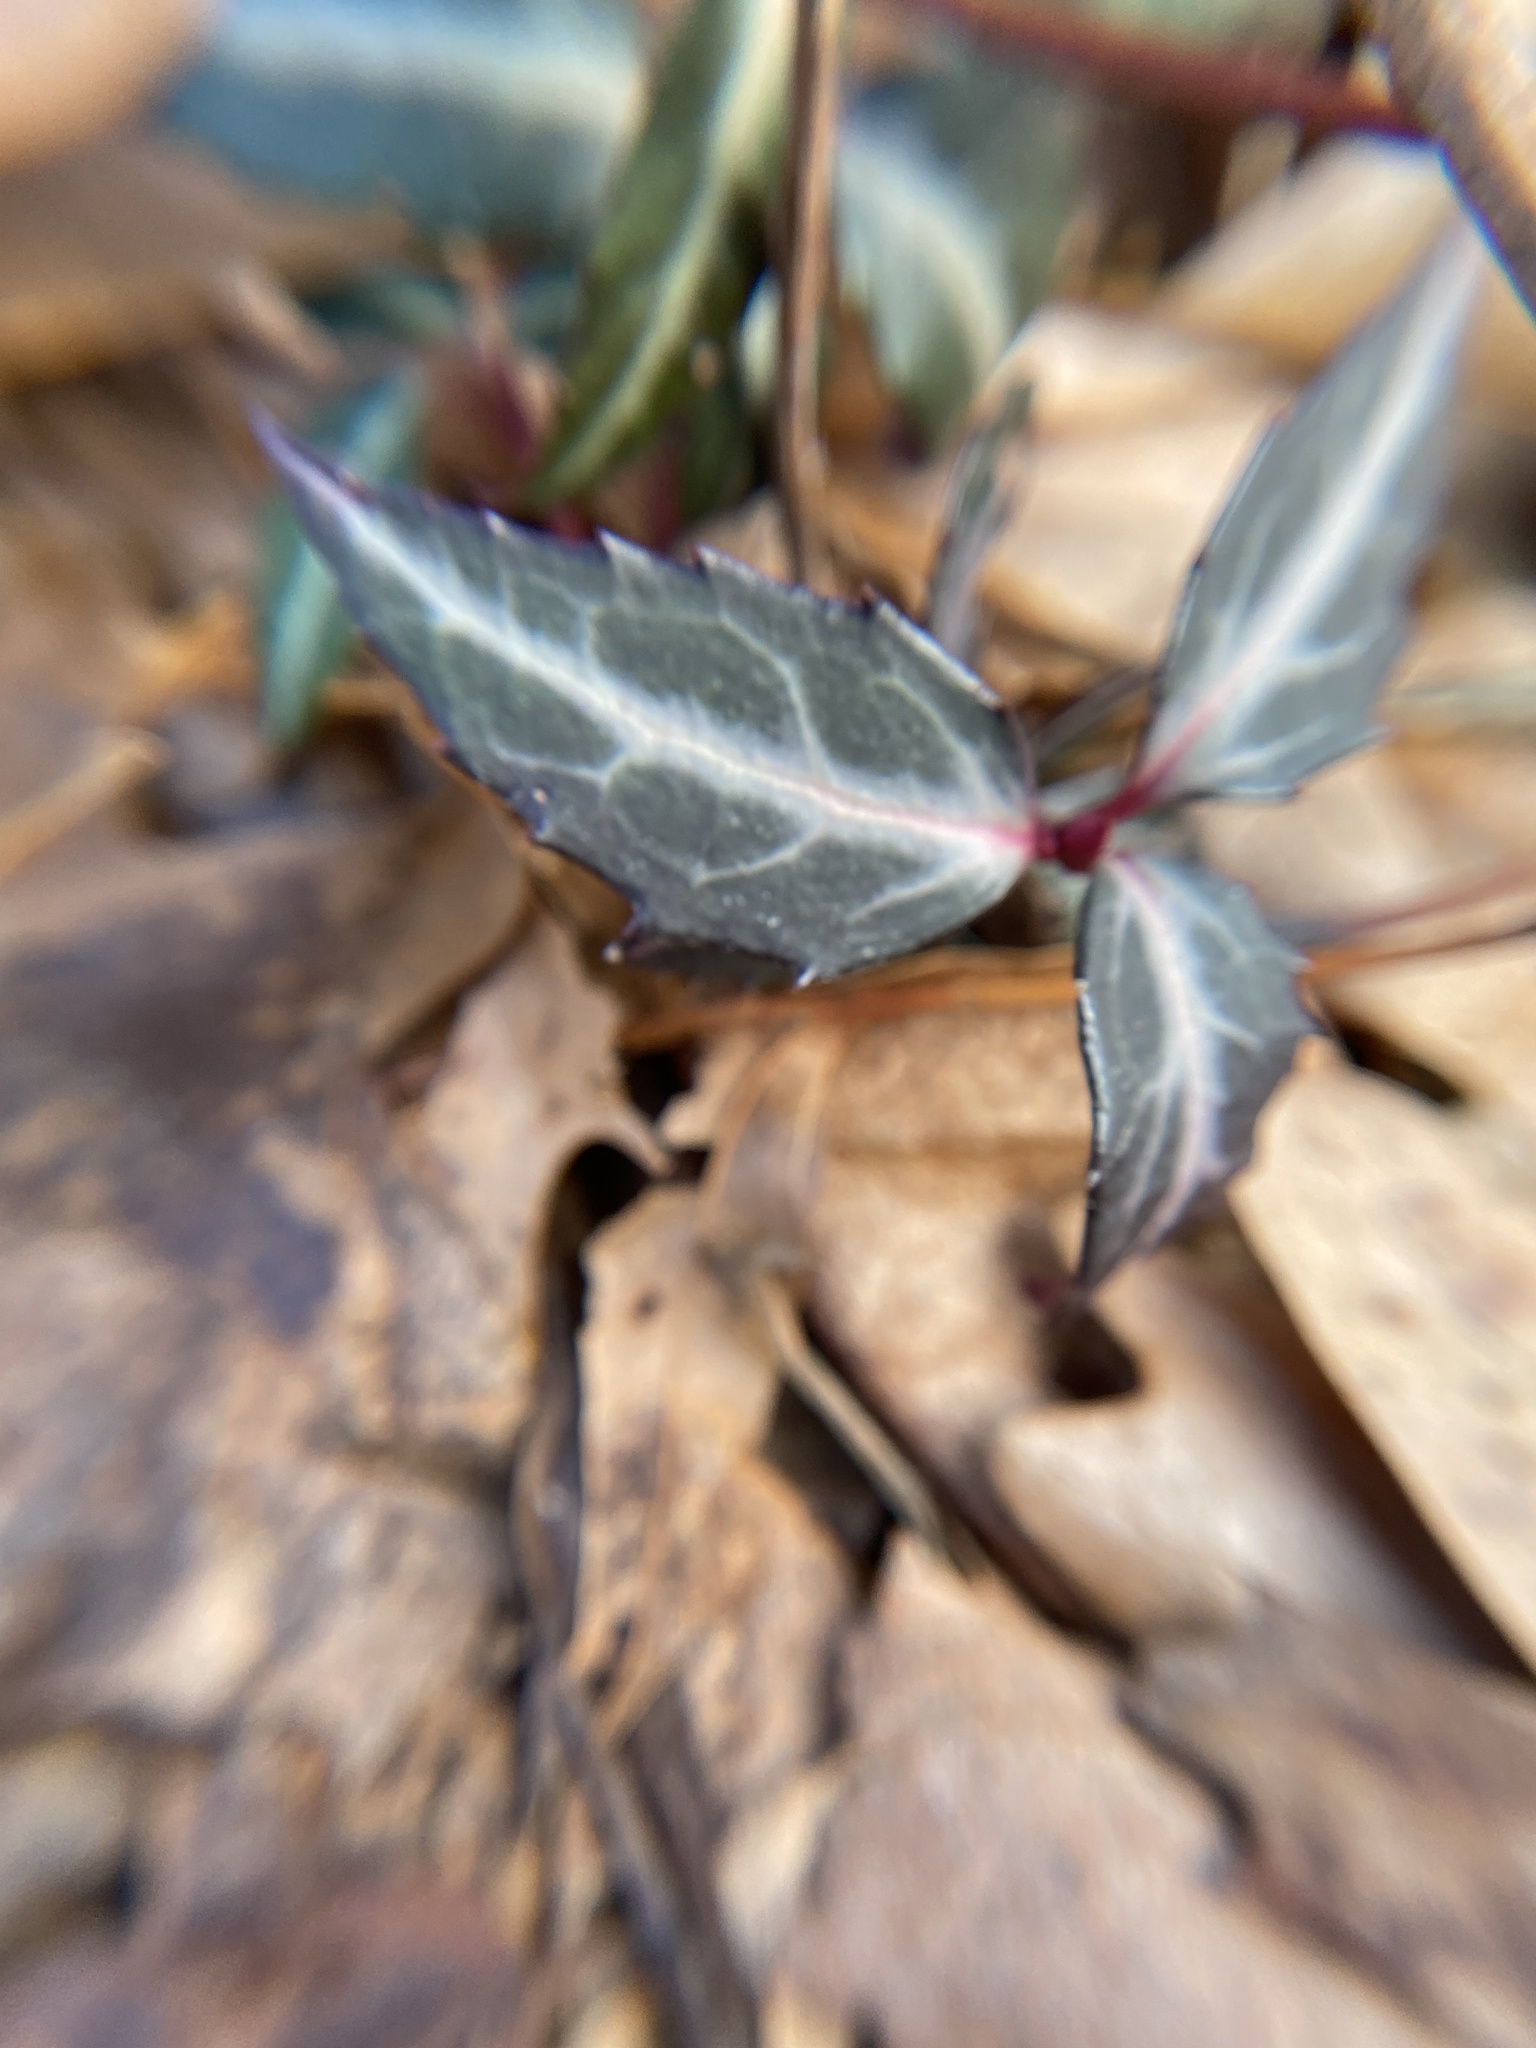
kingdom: Plantae
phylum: Tracheophyta
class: Magnoliopsida
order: Ericales
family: Ericaceae
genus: Chimaphila
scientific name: Chimaphila maculata
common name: Spotted pipsissewa
